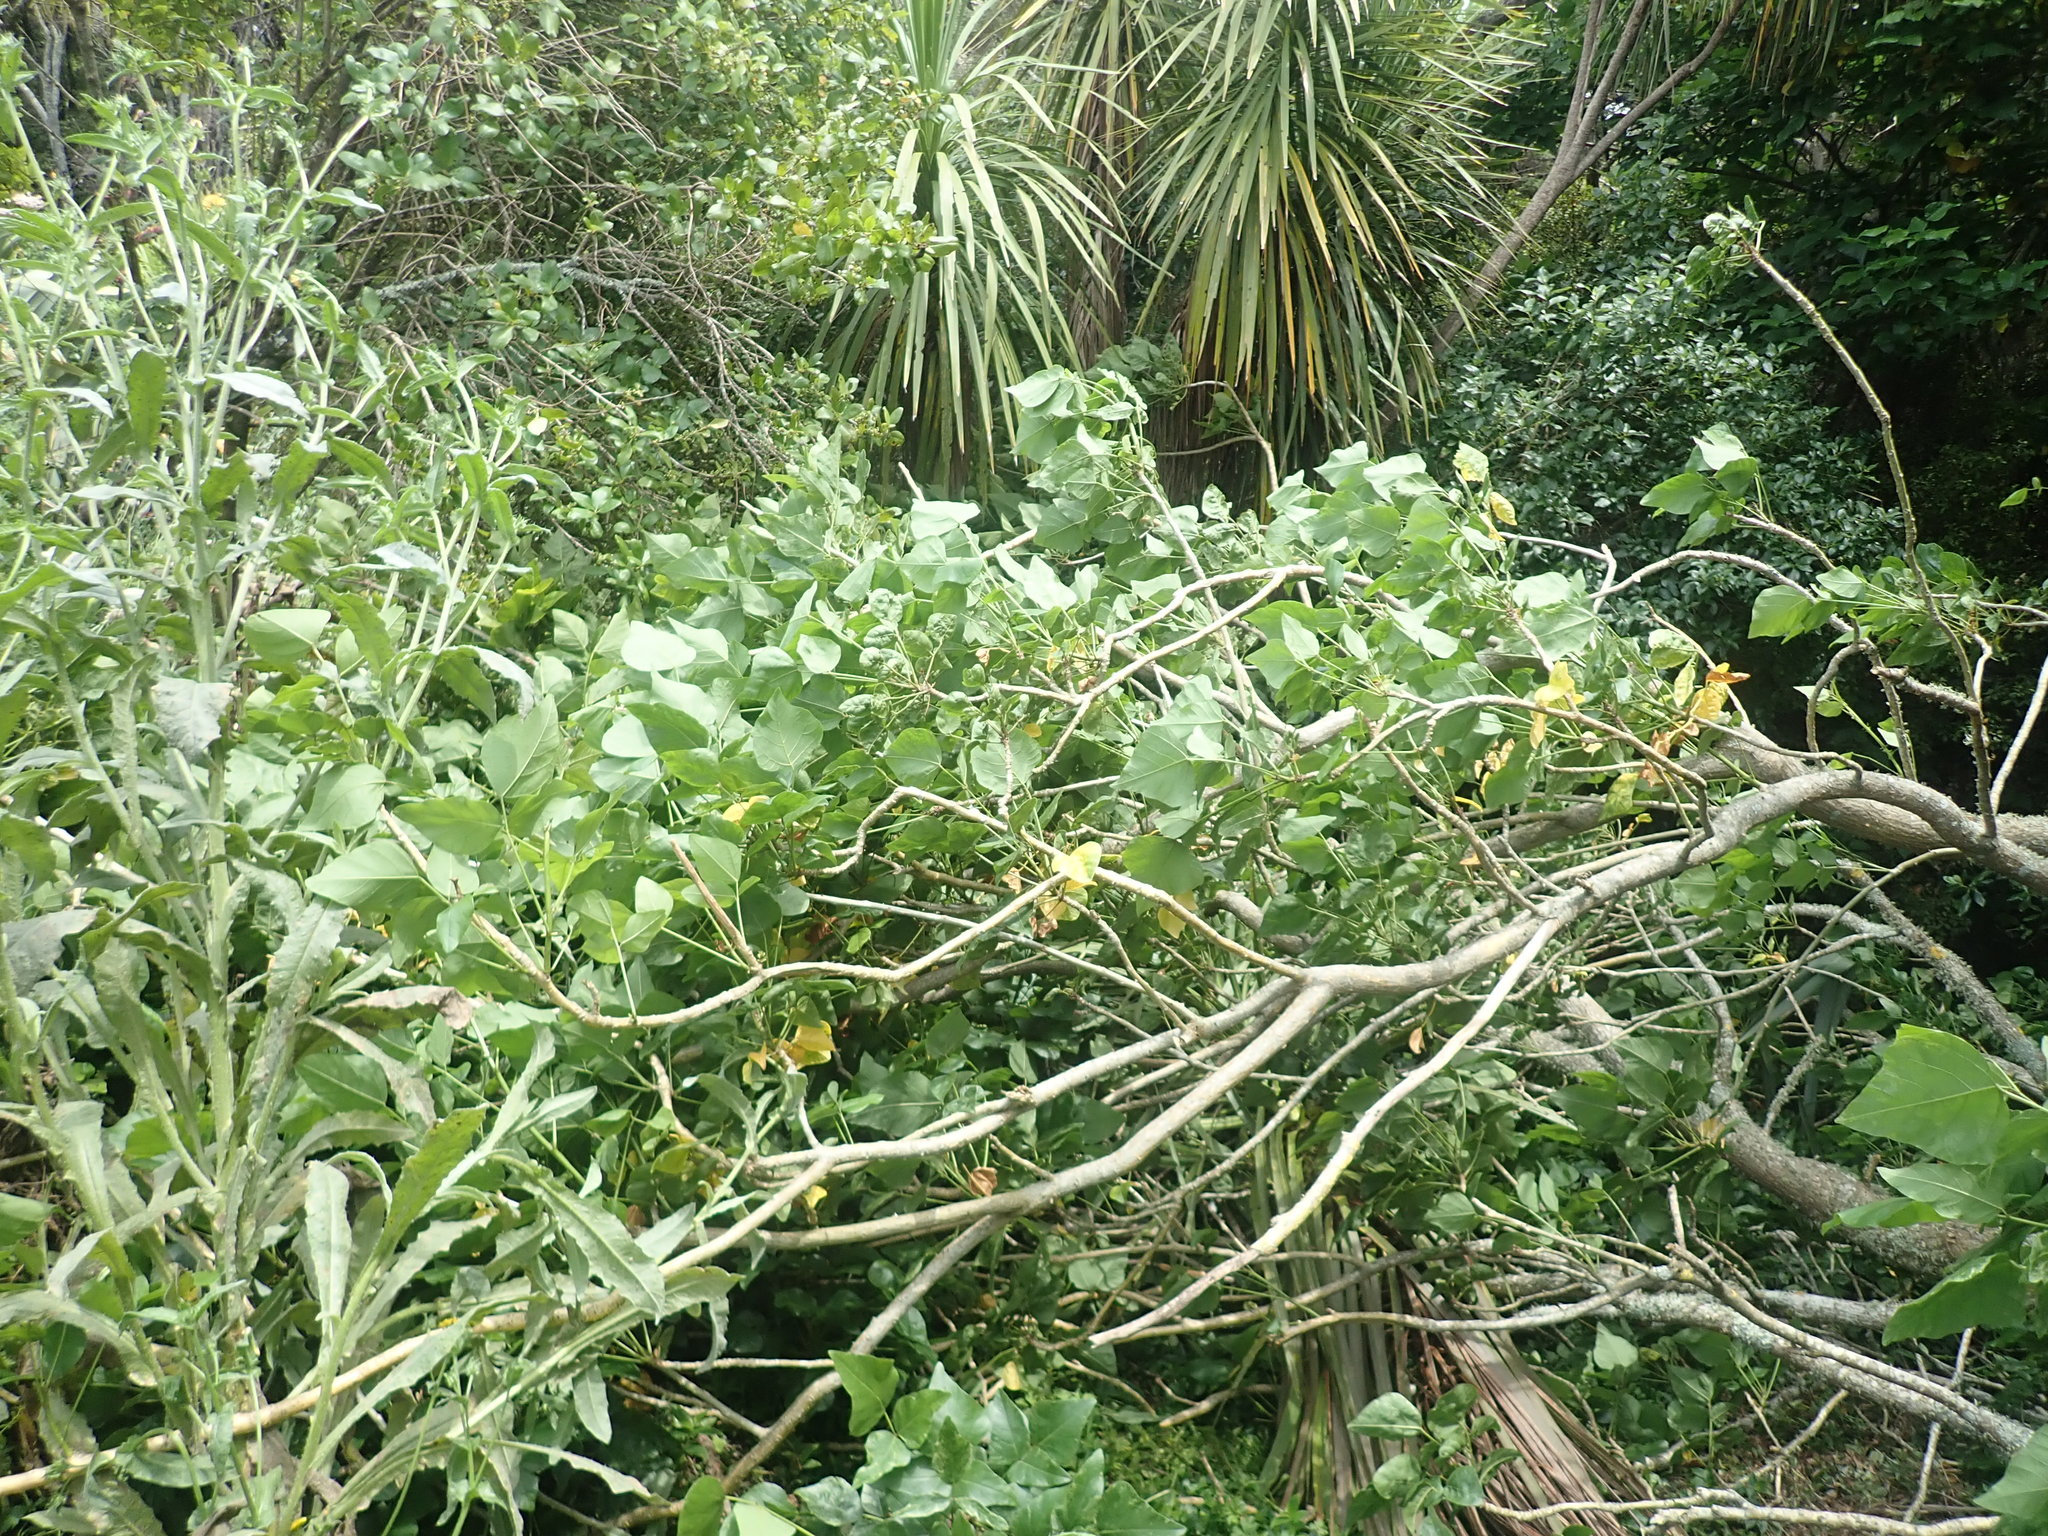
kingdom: Plantae
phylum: Tracheophyta
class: Magnoliopsida
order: Gentianales
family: Rubiaceae
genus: Coprosma
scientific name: Coprosma robusta
